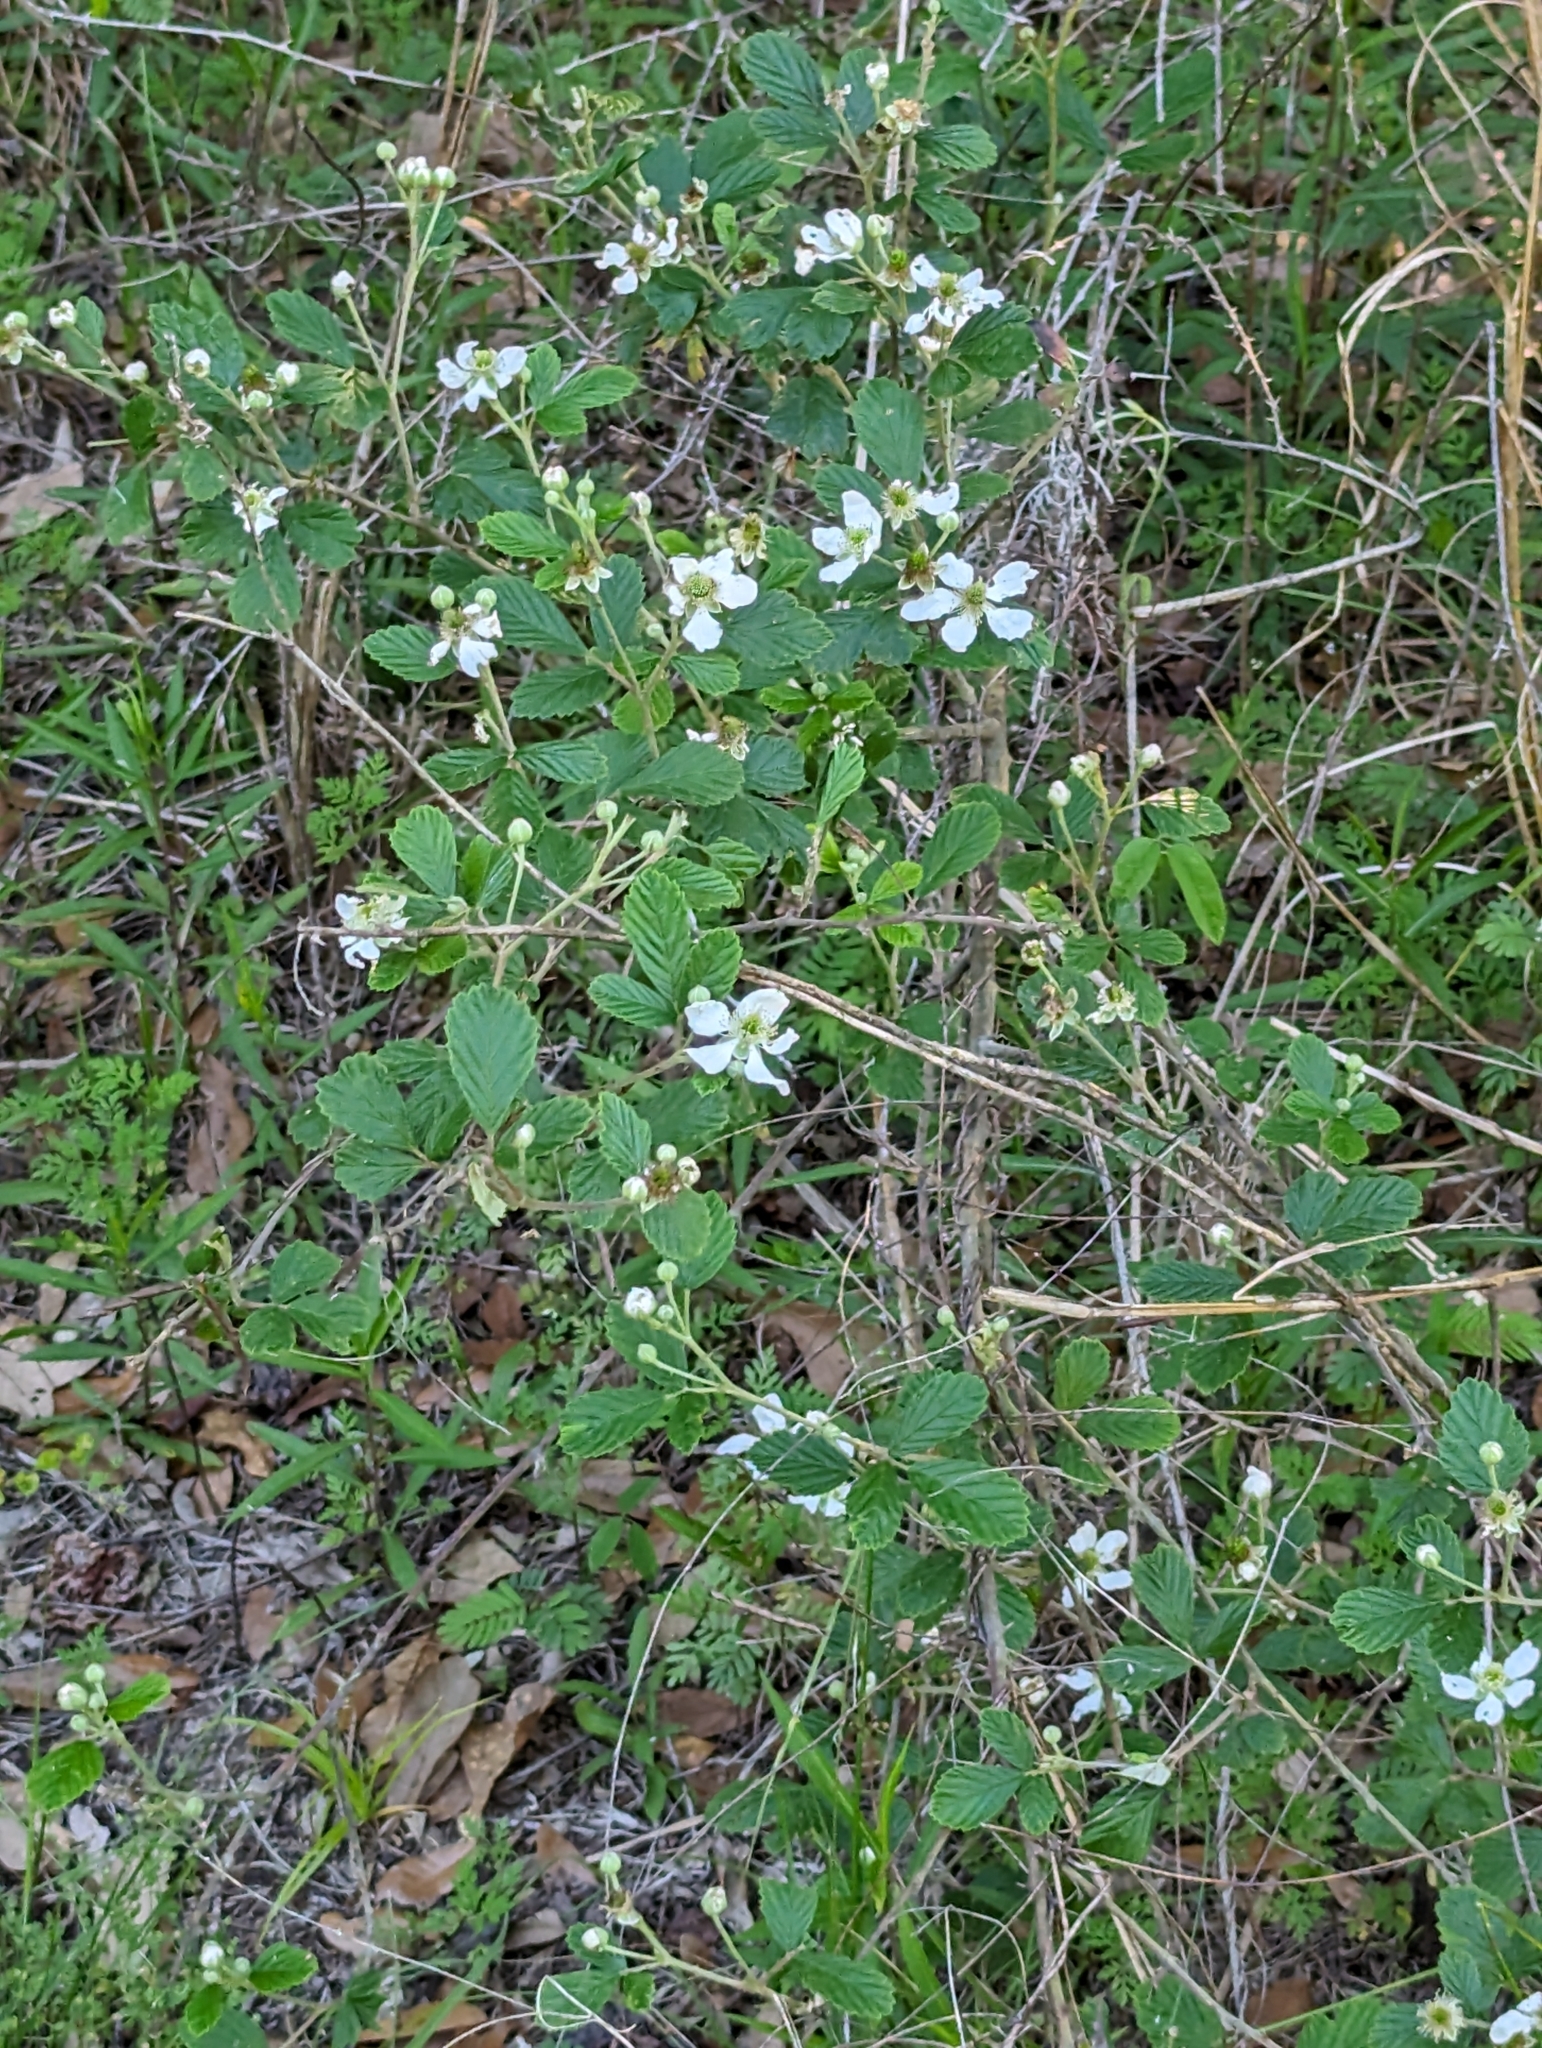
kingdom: Plantae
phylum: Tracheophyta
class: Magnoliopsida
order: Rosales
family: Rosaceae
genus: Rubus
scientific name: Rubus cuneifolius
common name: American bramble
